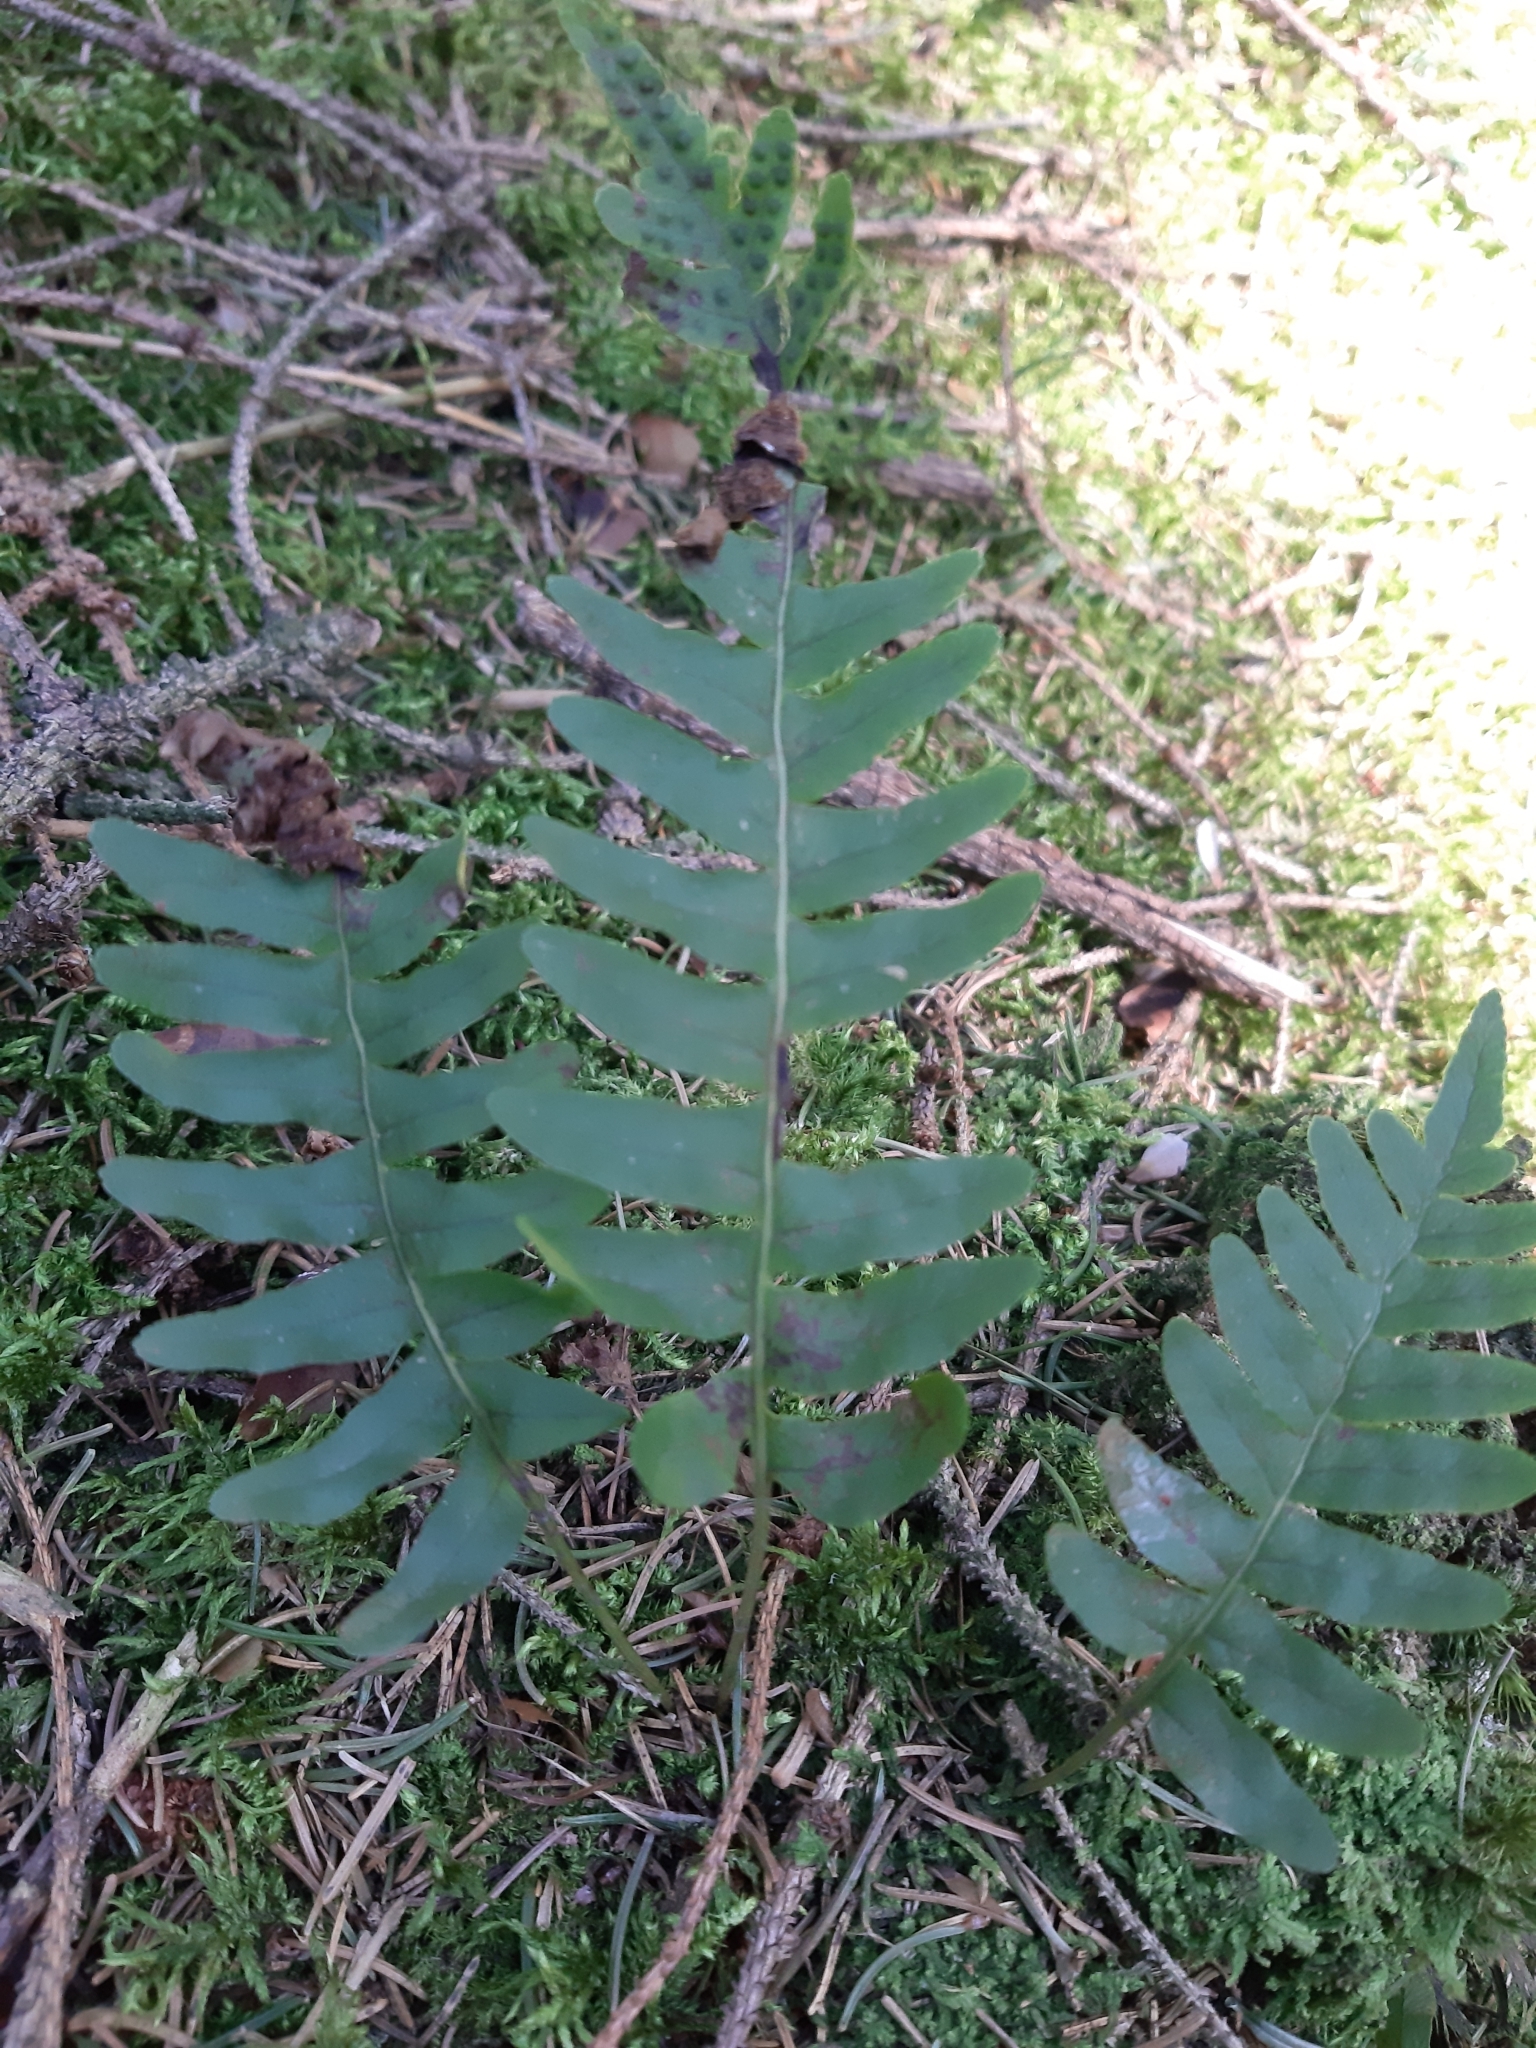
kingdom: Plantae
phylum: Tracheophyta
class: Polypodiopsida
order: Polypodiales
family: Polypodiaceae
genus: Polypodium
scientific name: Polypodium vulgare
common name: Common polypody
